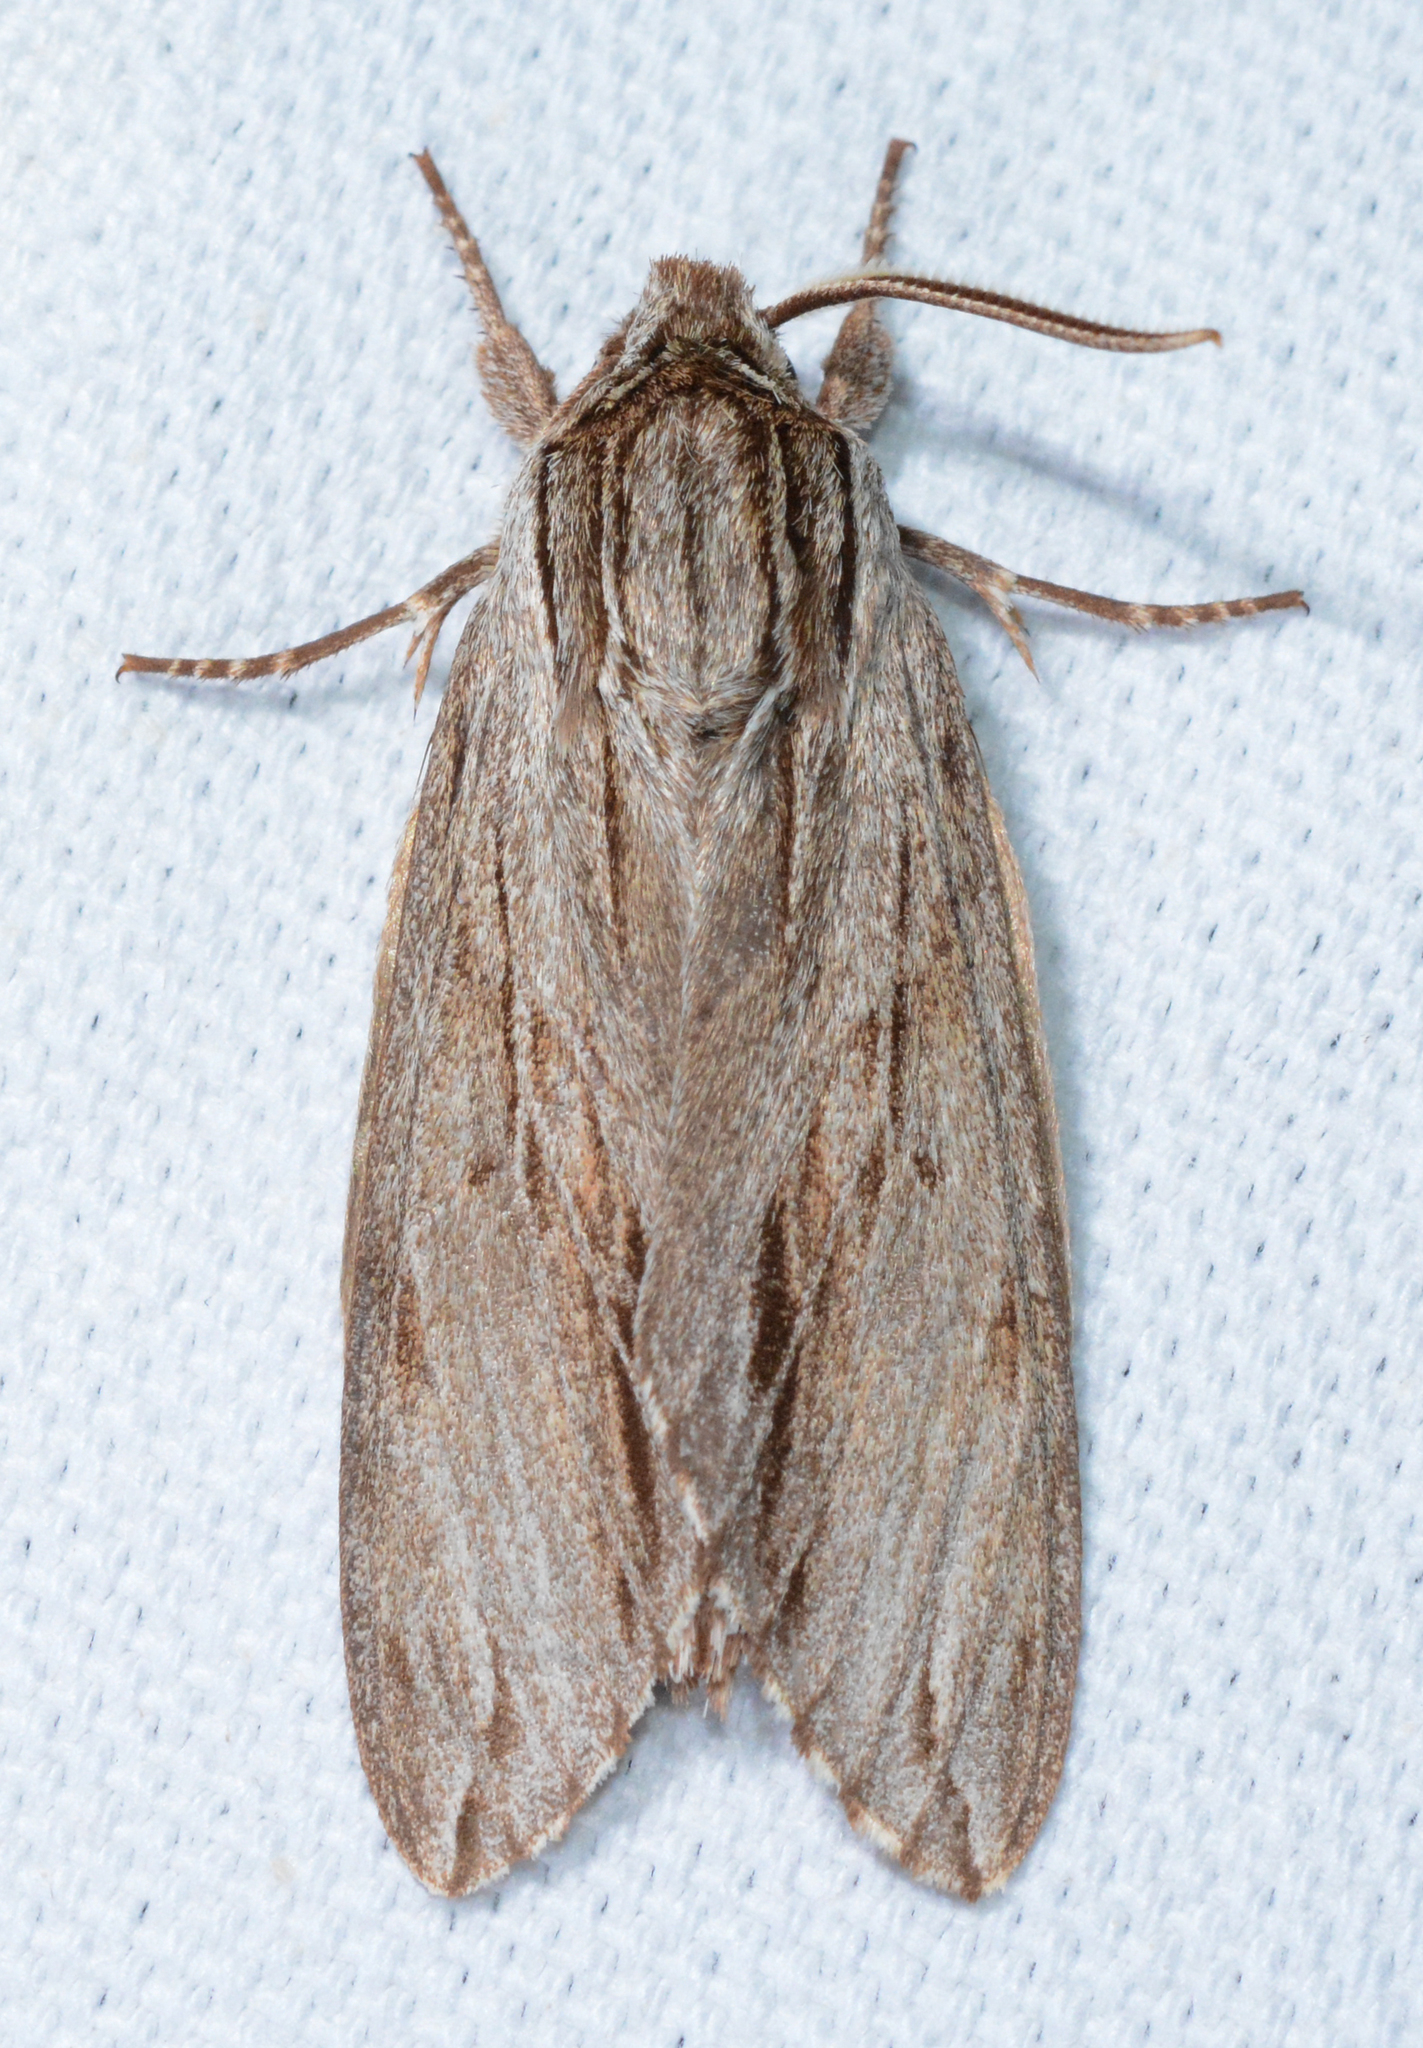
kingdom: Animalia
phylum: Arthropoda
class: Insecta
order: Lepidoptera
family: Sphingidae
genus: Isoparce
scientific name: Isoparce cupressi
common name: Cypress sphinx
